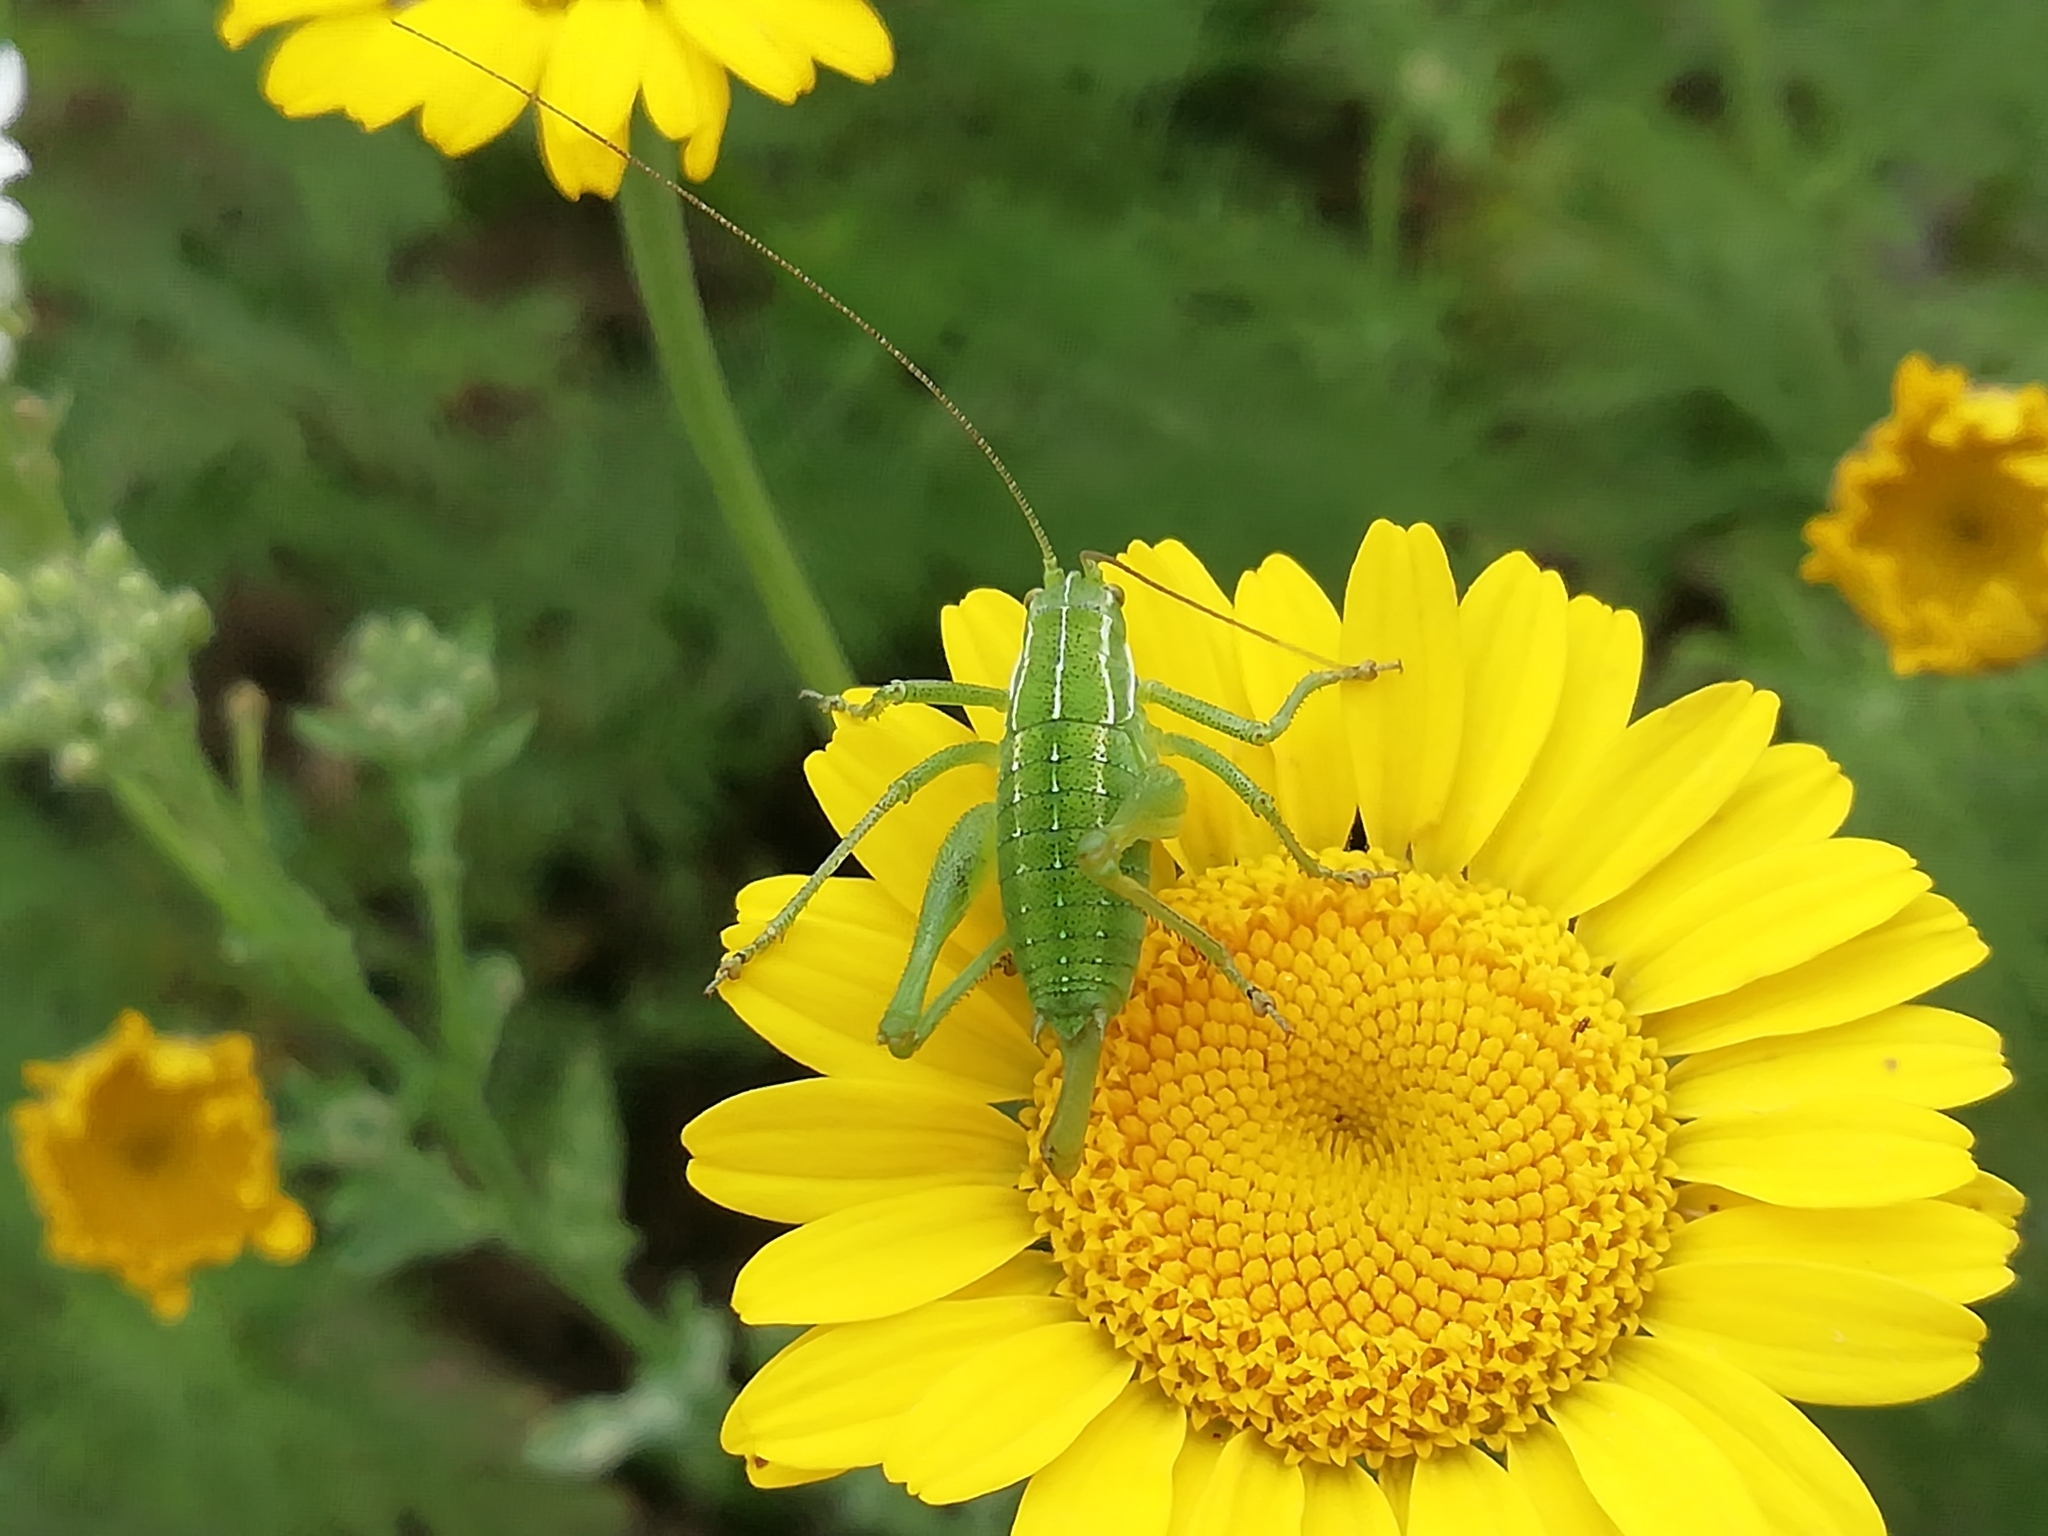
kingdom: Animalia
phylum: Arthropoda
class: Insecta
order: Orthoptera
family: Tettigoniidae
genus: Poecilimon
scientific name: Poecilimon intermedius
